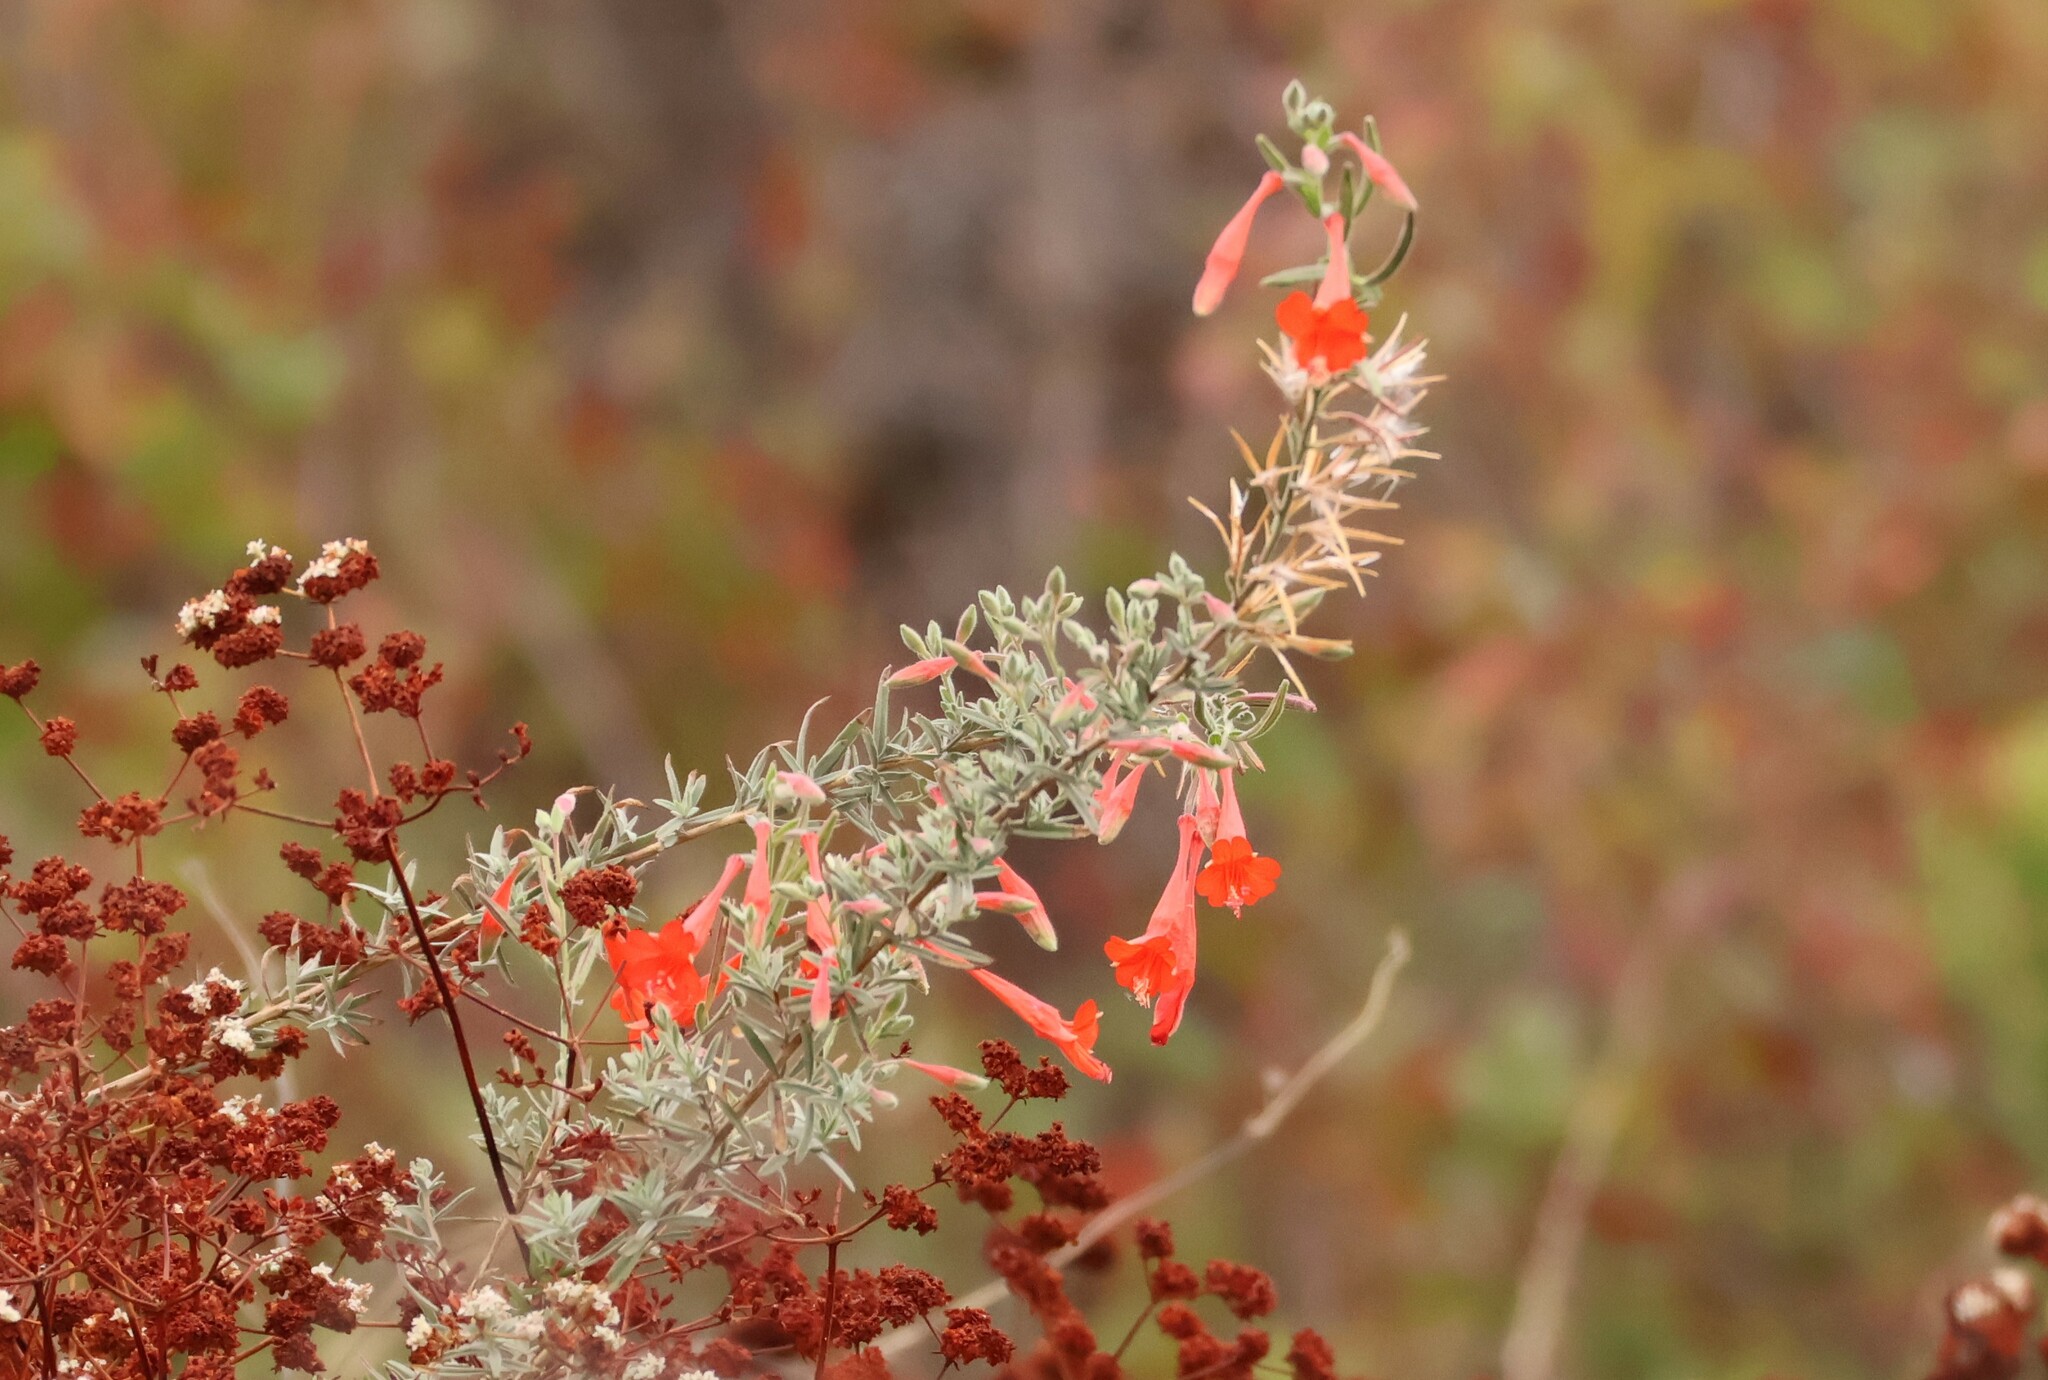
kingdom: Plantae
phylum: Tracheophyta
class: Magnoliopsida
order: Myrtales
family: Onagraceae
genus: Epilobium
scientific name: Epilobium canum
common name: California-fuchsia
